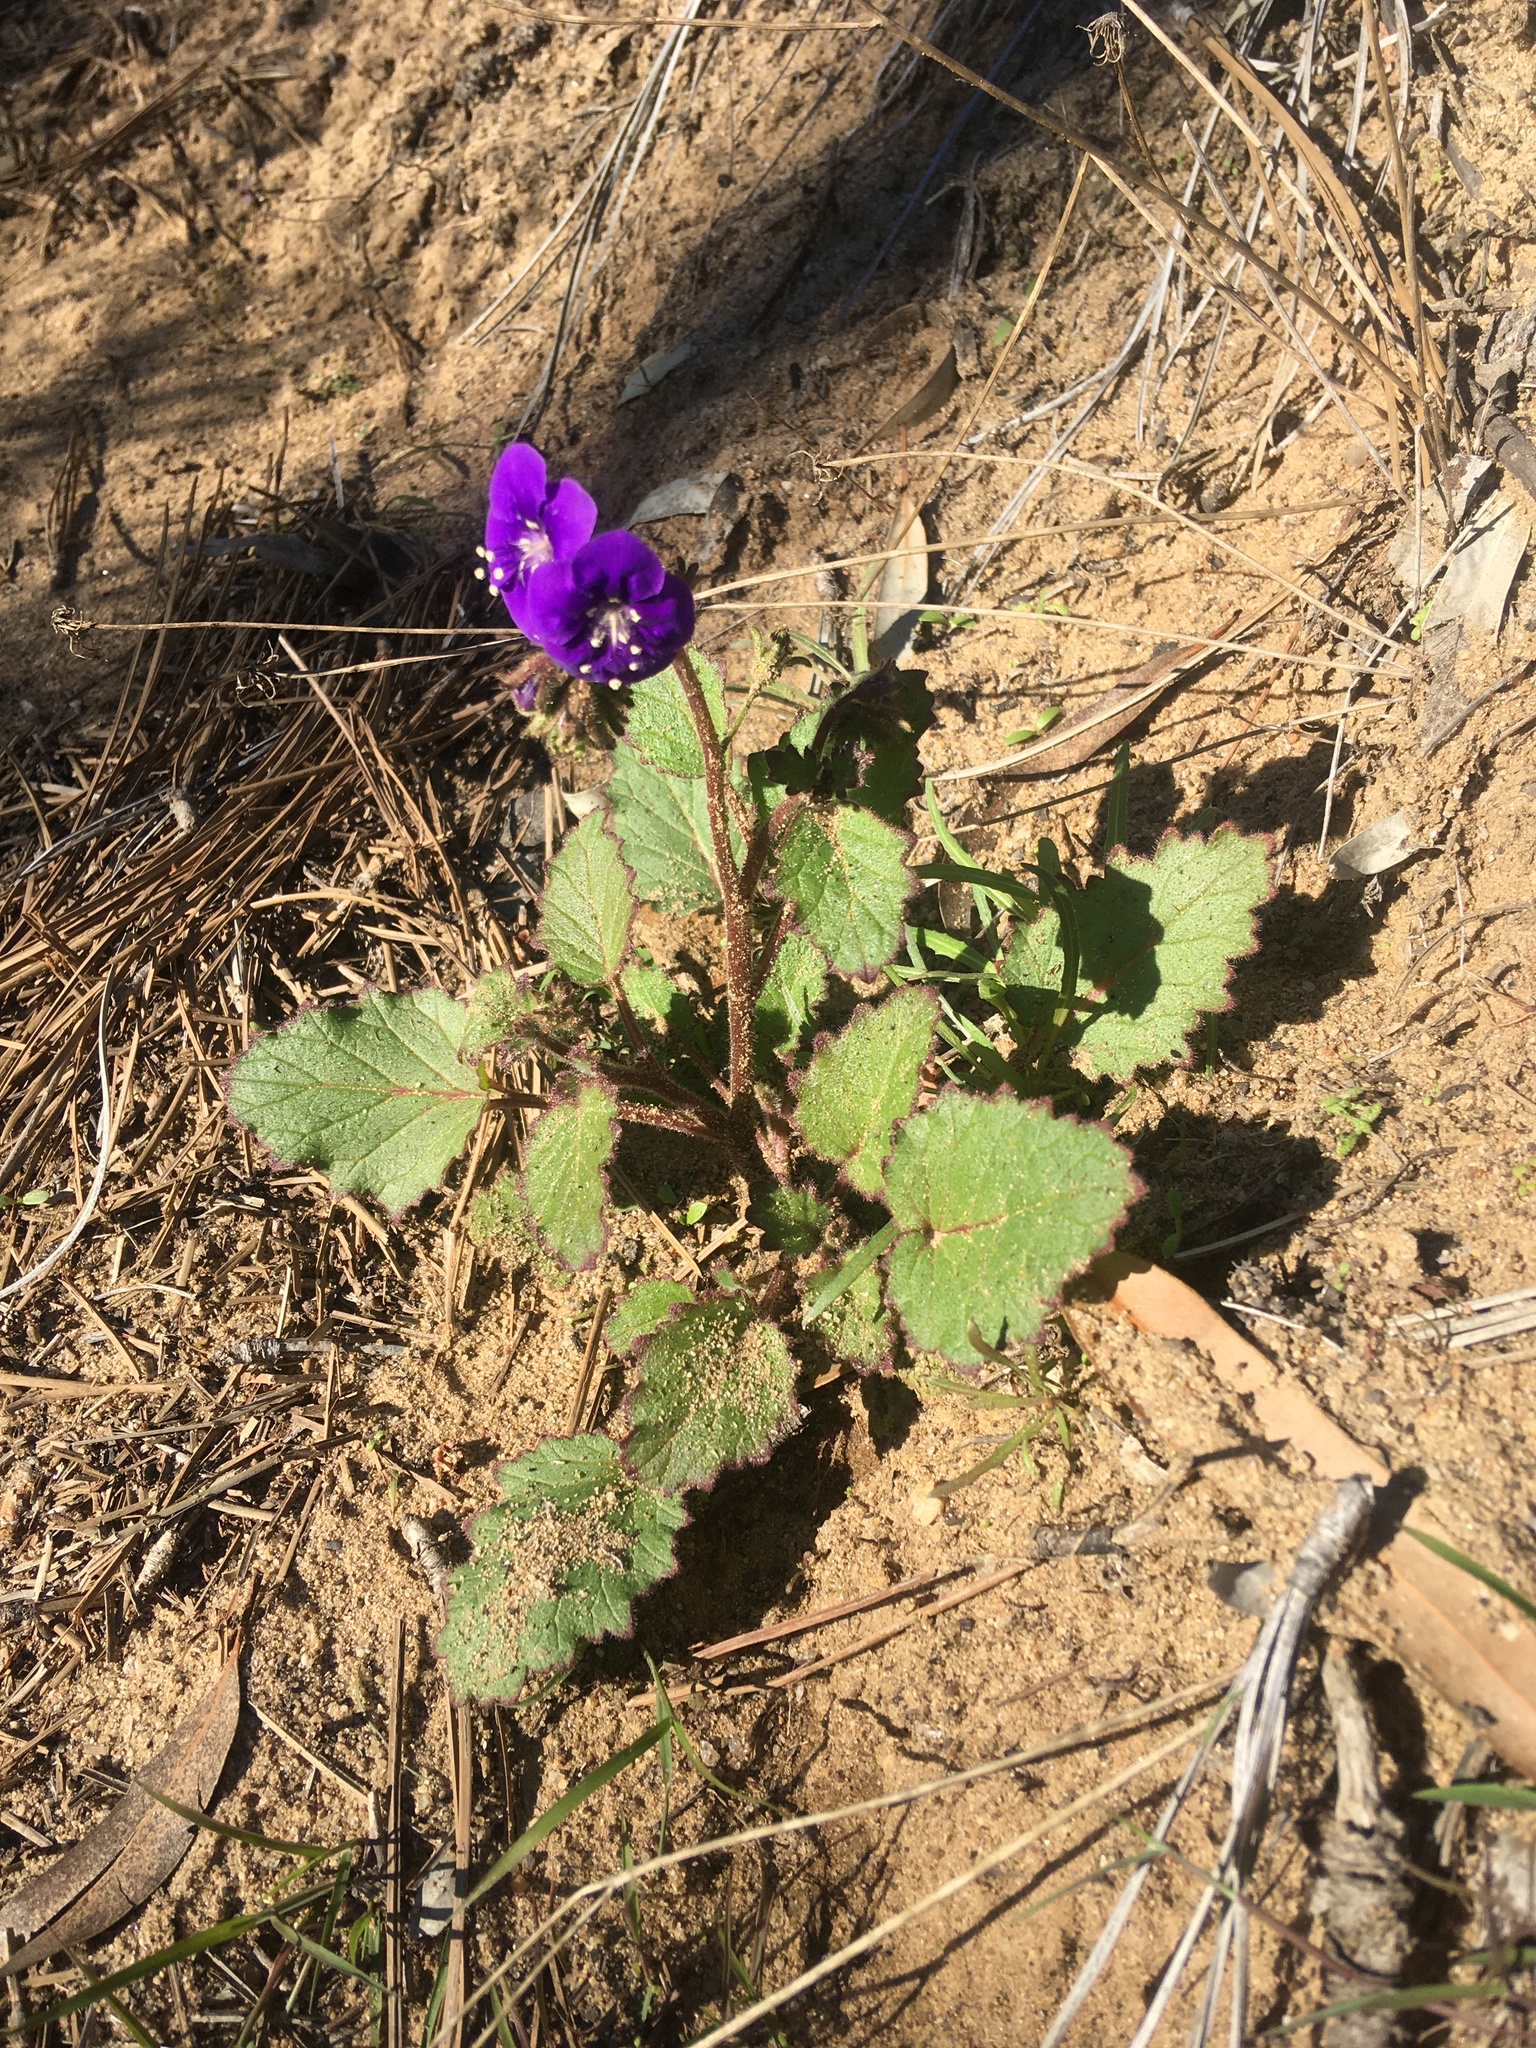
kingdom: Plantae
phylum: Tracheophyta
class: Magnoliopsida
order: Boraginales
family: Hydrophyllaceae
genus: Phacelia
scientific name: Phacelia parryi
